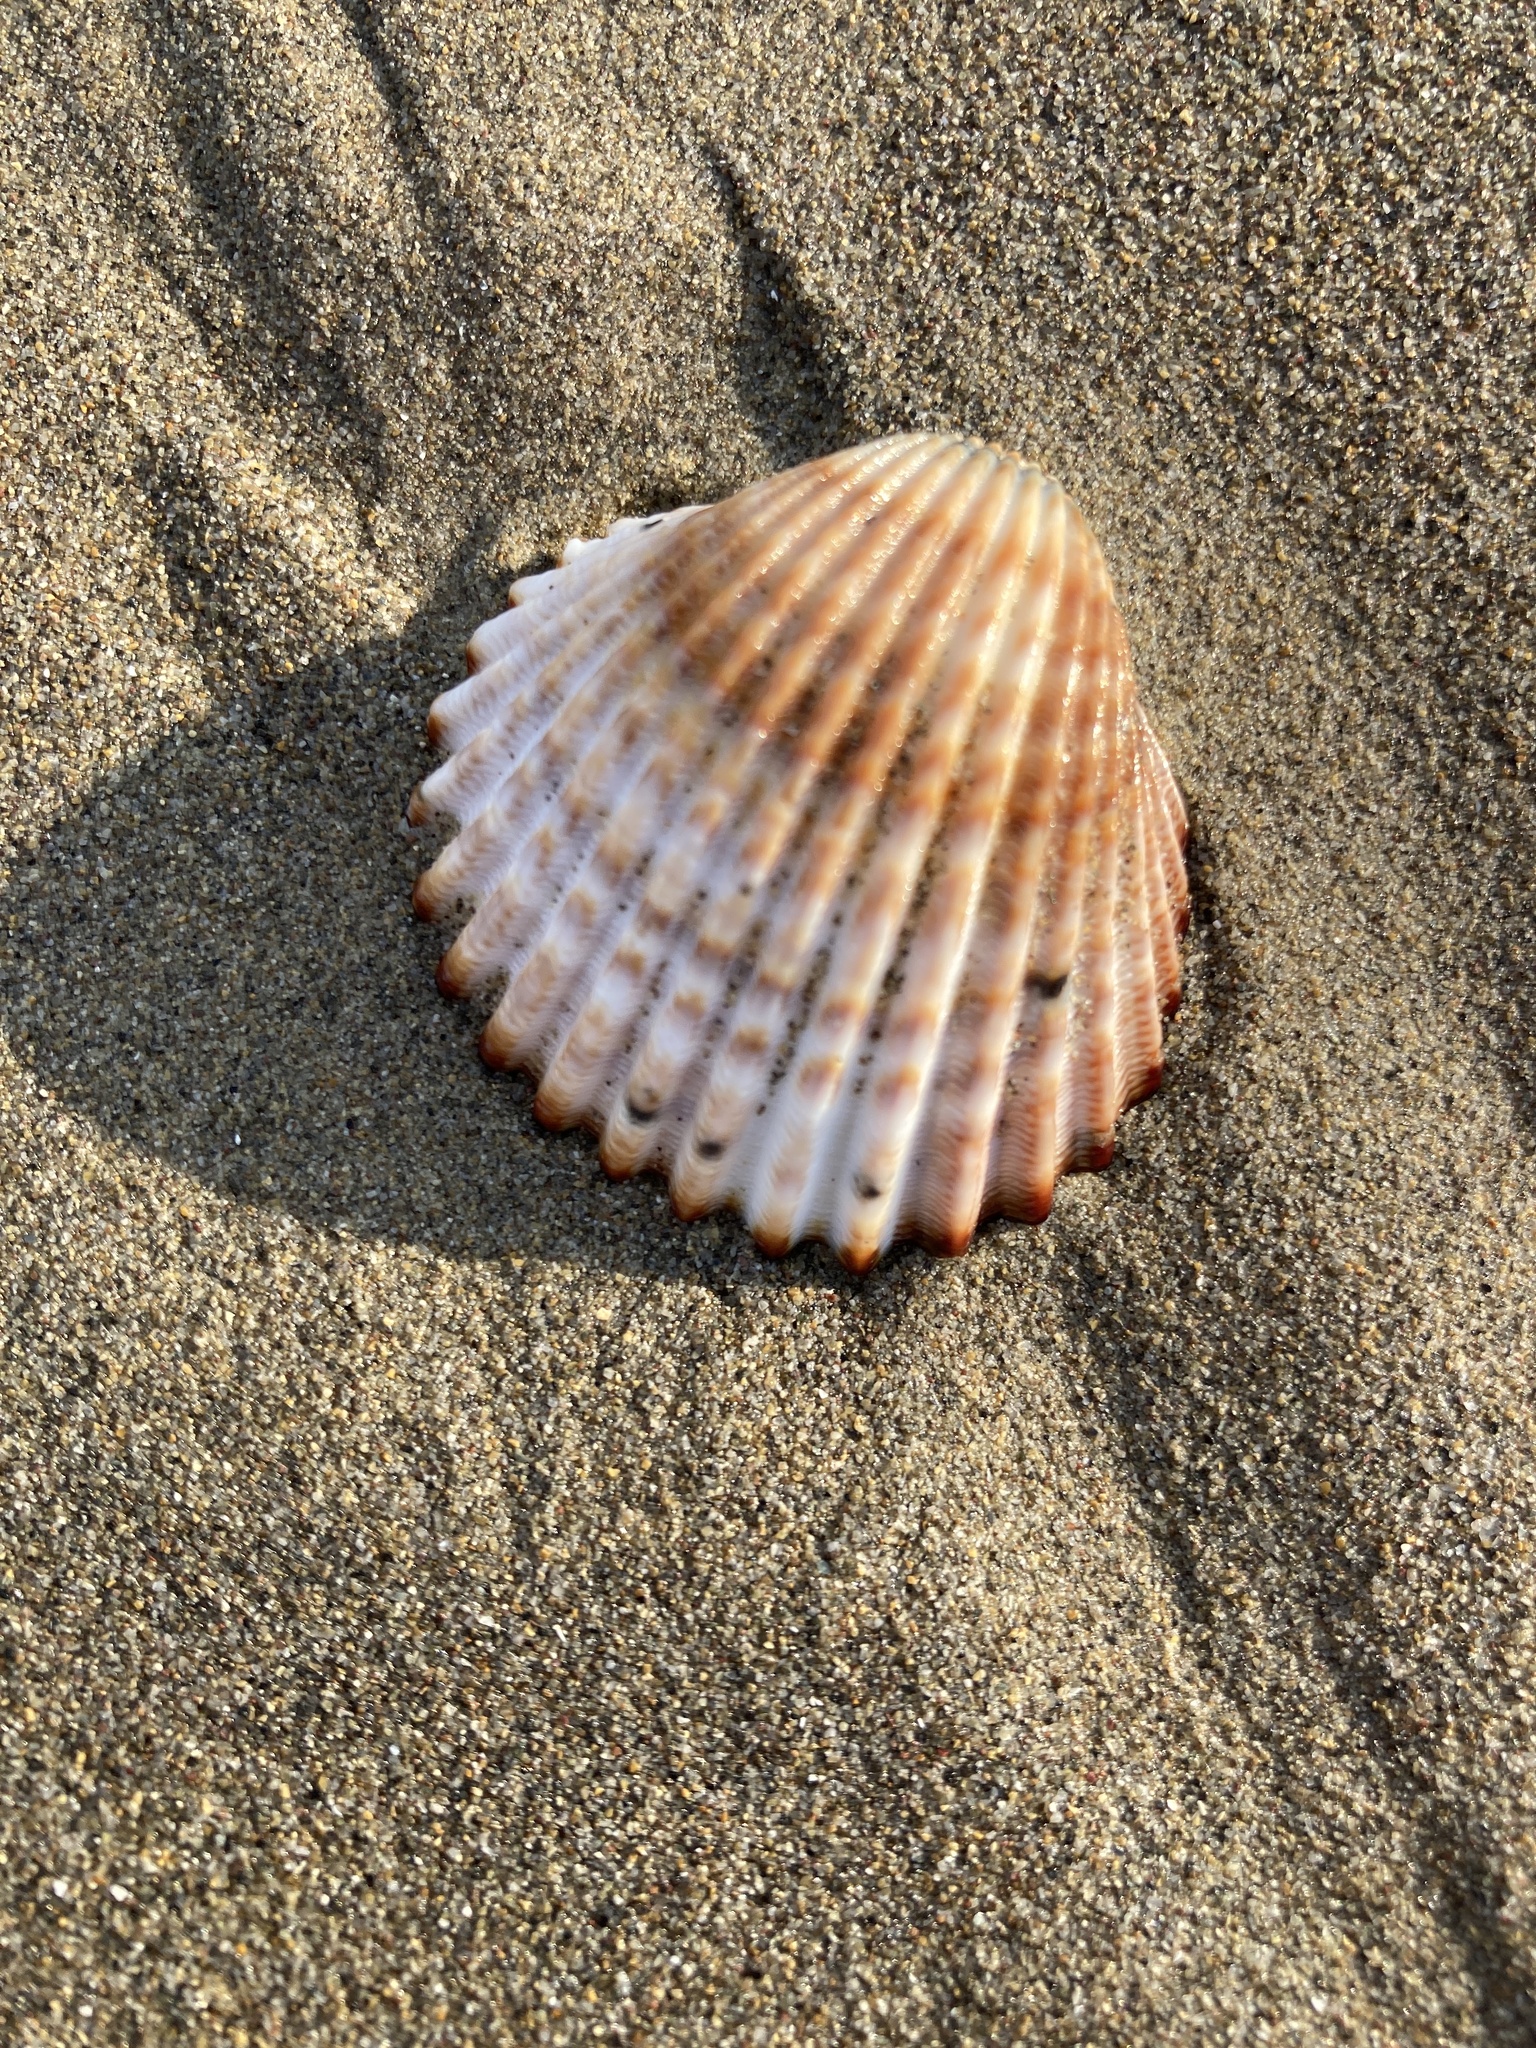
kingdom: Animalia
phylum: Mollusca
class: Bivalvia
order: Cardiida
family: Cardiidae
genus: Acanthocardia
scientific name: Acanthocardia tuberculata
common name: Rough cockle
